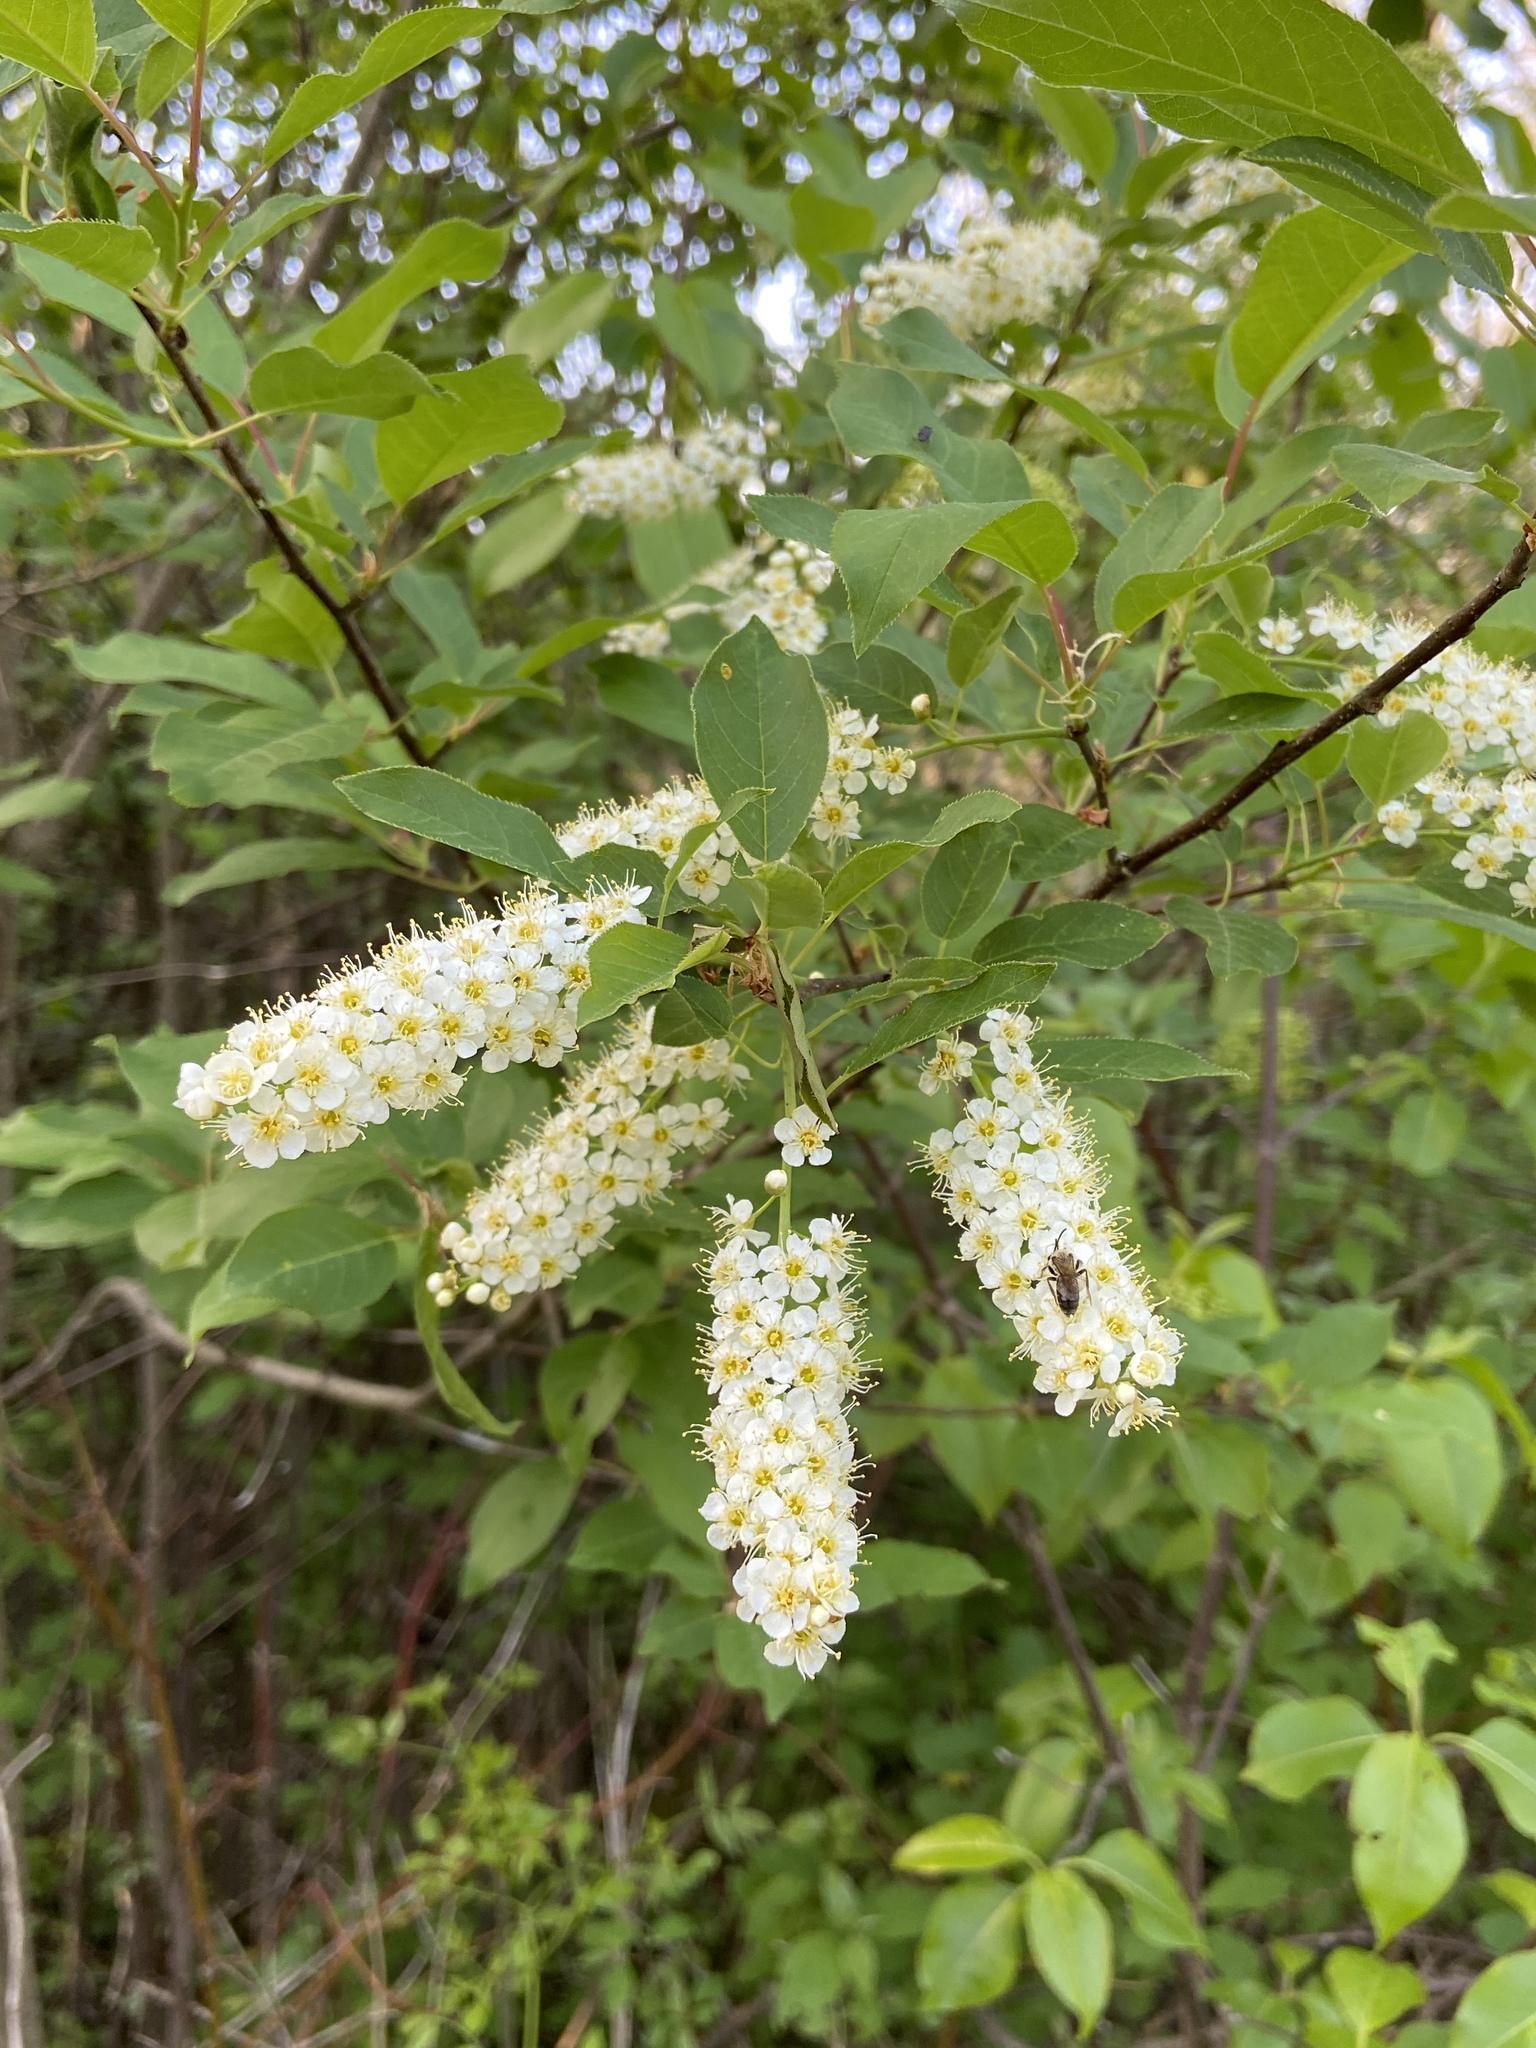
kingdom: Plantae
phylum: Tracheophyta
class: Magnoliopsida
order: Rosales
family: Rosaceae
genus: Prunus
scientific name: Prunus virginiana
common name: Chokecherry
